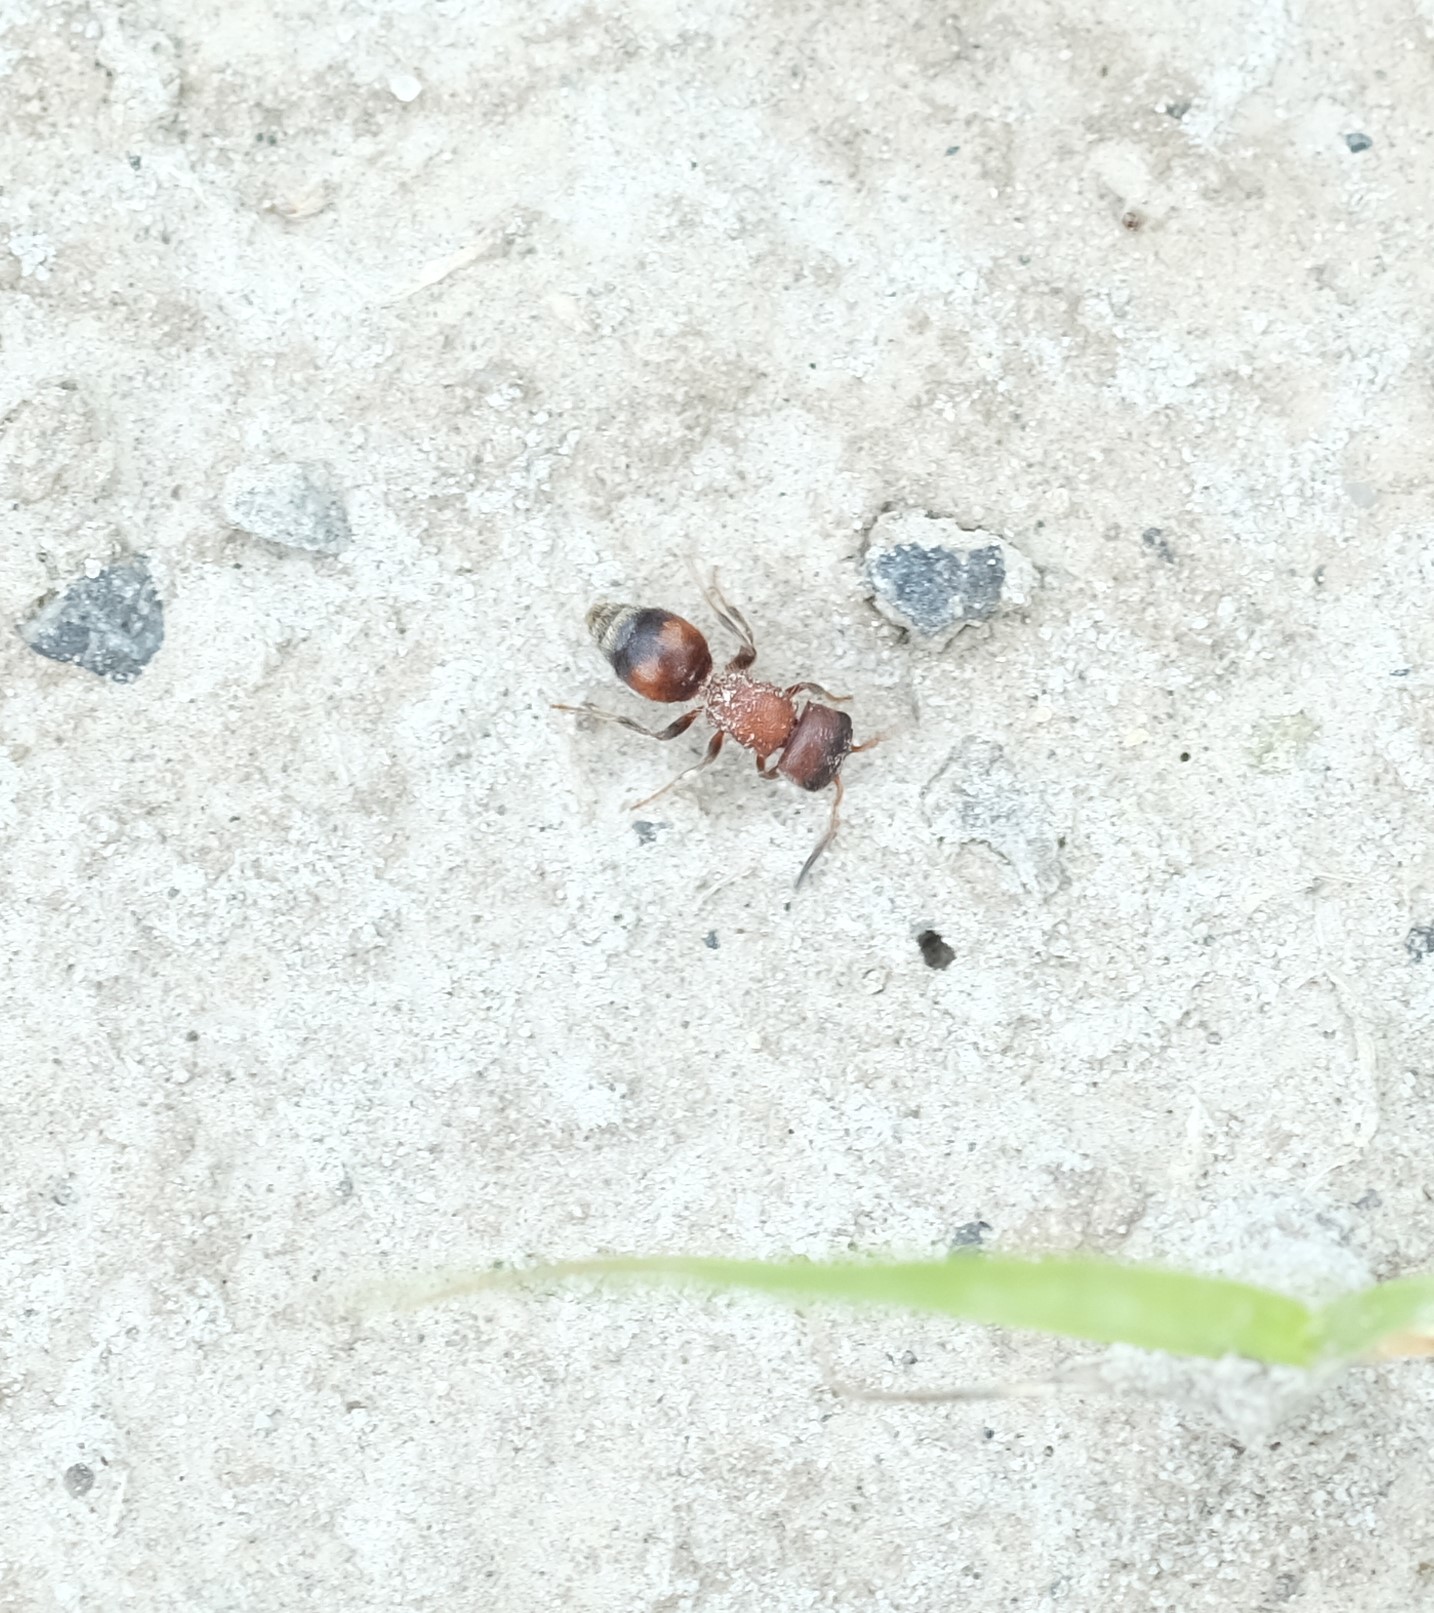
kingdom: Animalia
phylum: Arthropoda
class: Insecta
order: Hymenoptera
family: Mutillidae
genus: Pseudomethoca
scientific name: Pseudomethoca
